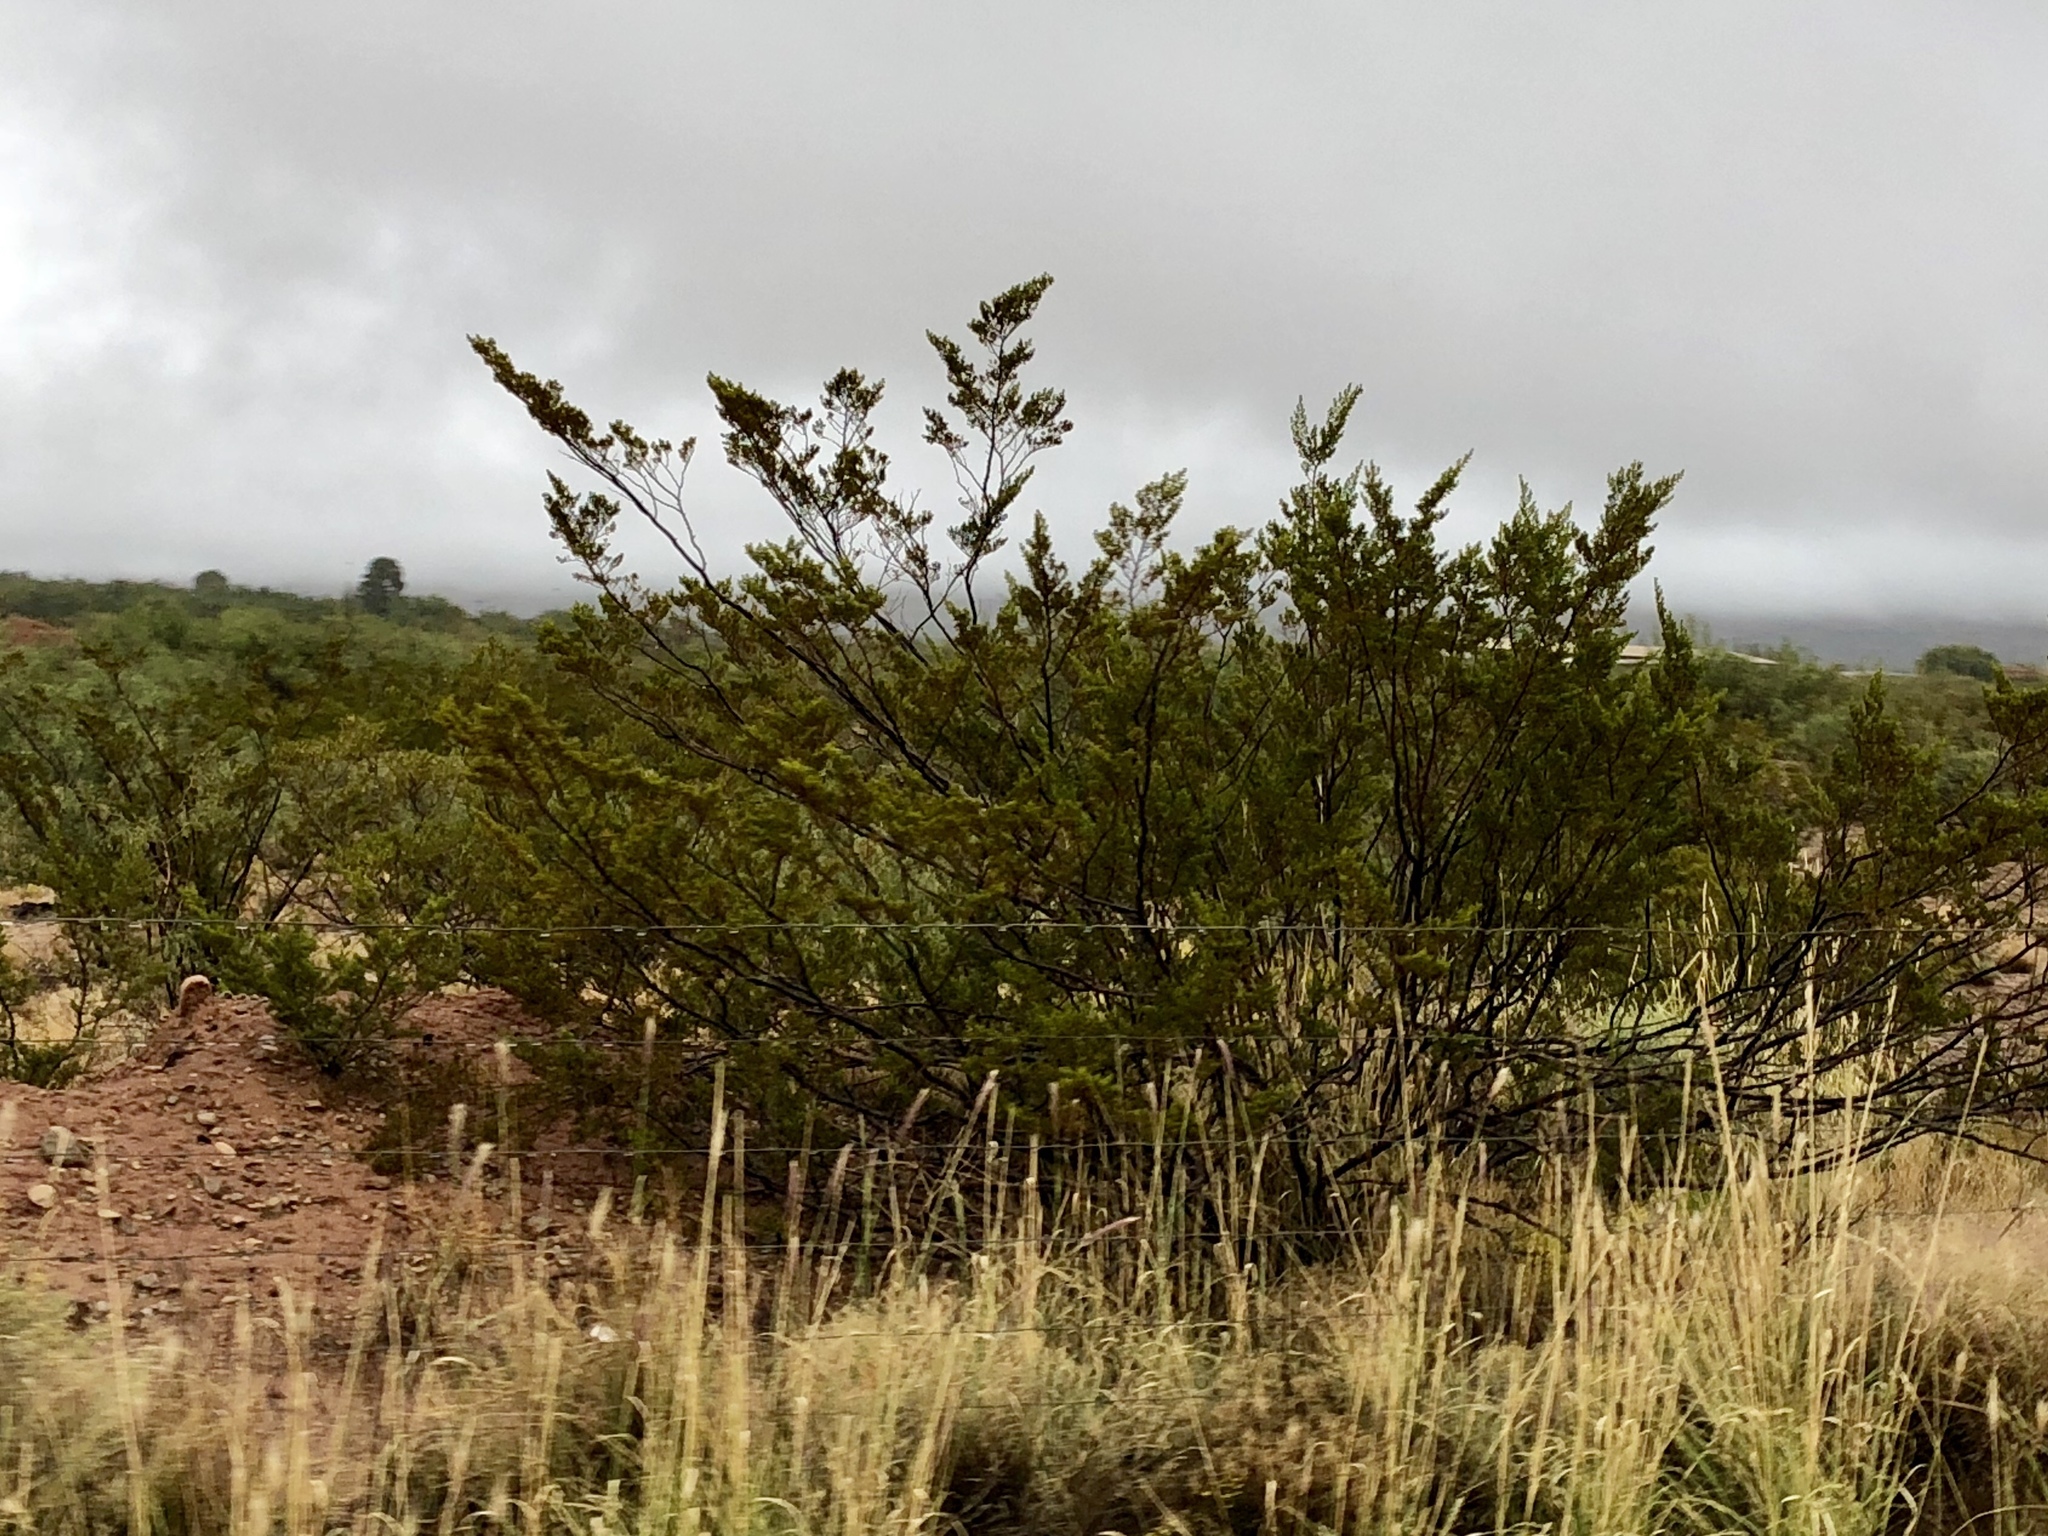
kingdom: Plantae
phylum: Tracheophyta
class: Magnoliopsida
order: Zygophyllales
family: Zygophyllaceae
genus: Larrea
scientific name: Larrea tridentata
